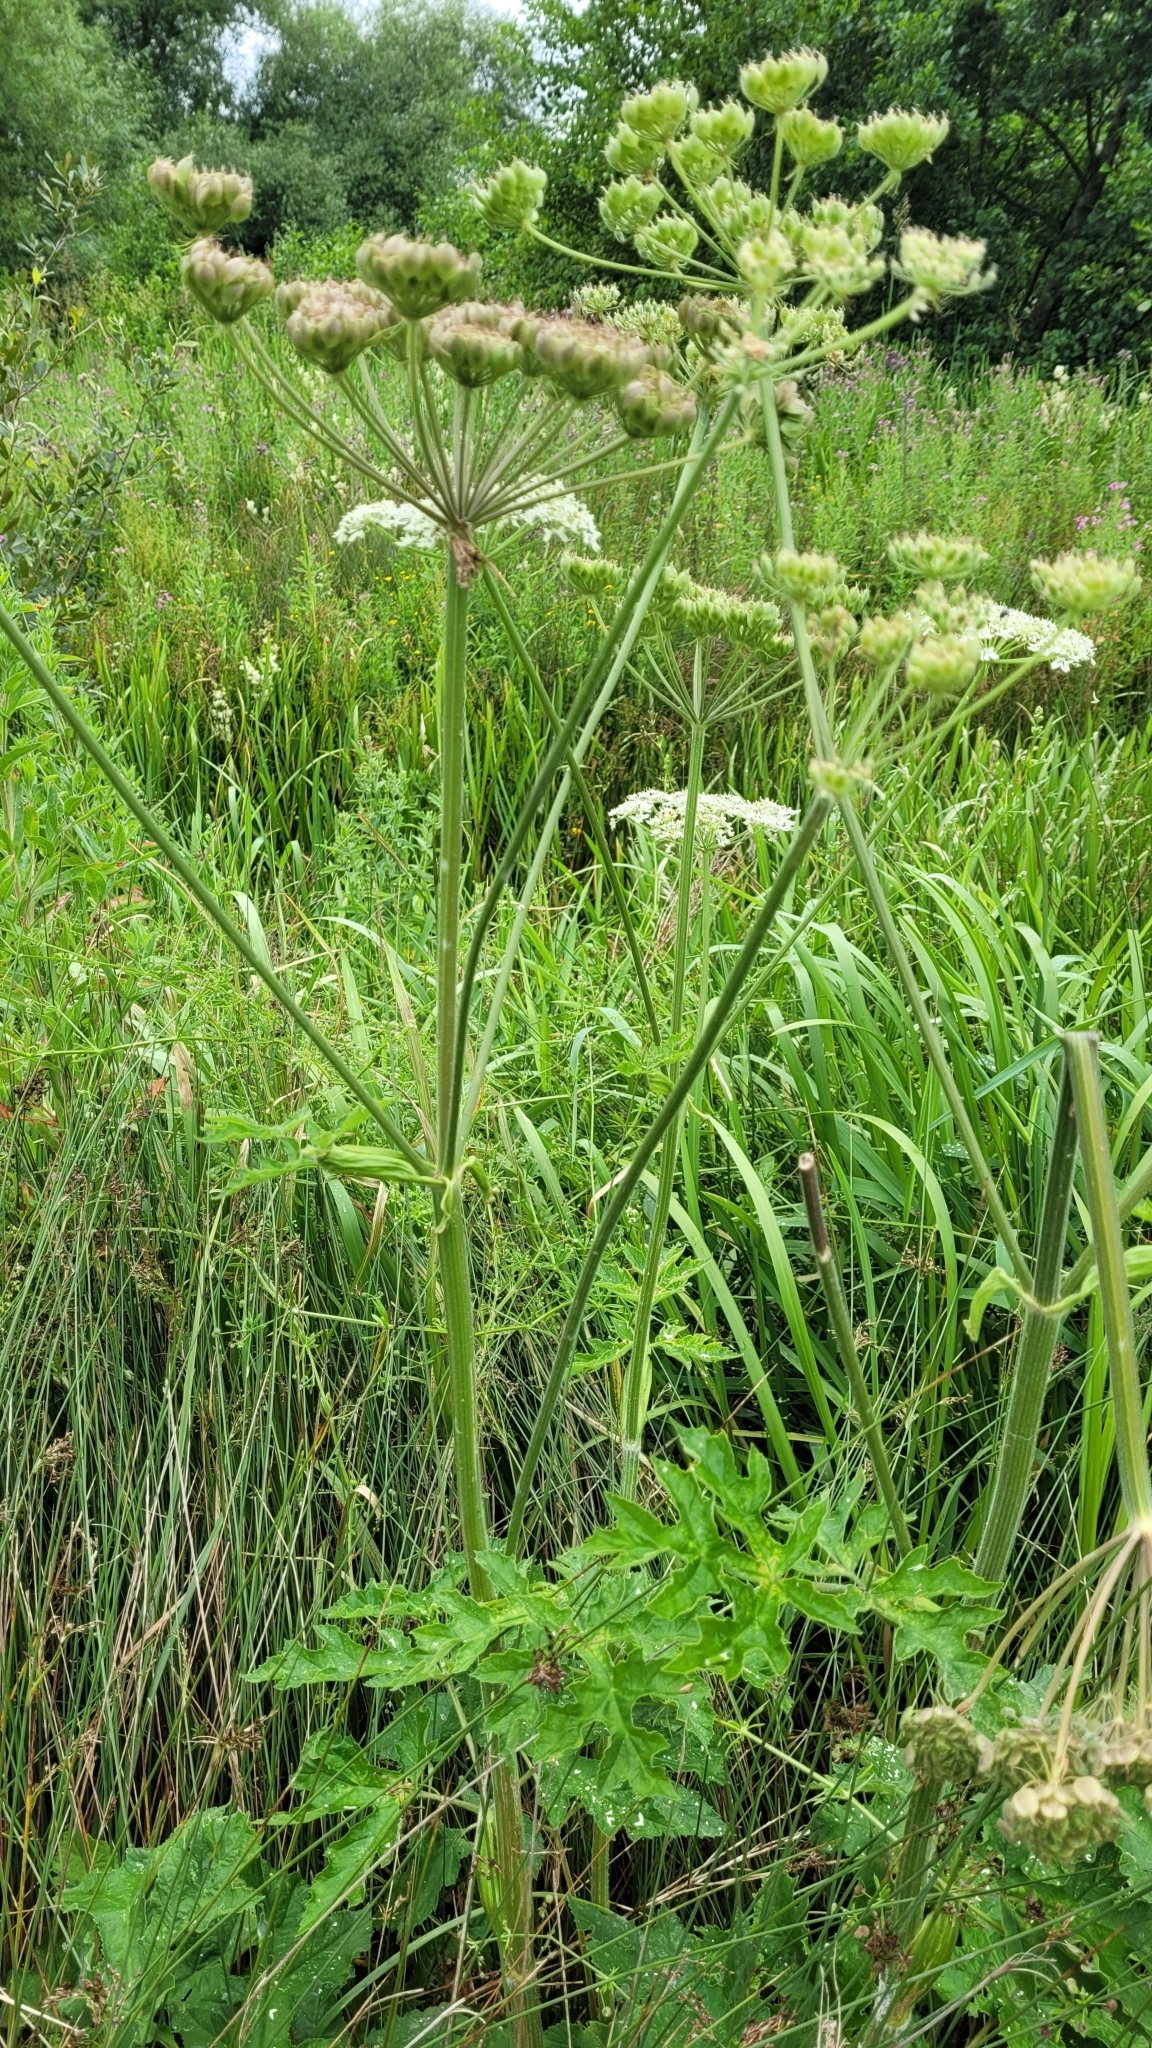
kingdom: Plantae
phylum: Tracheophyta
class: Magnoliopsida
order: Apiales
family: Apiaceae
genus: Heracleum
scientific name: Heracleum sphondylium
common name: Hogweed
